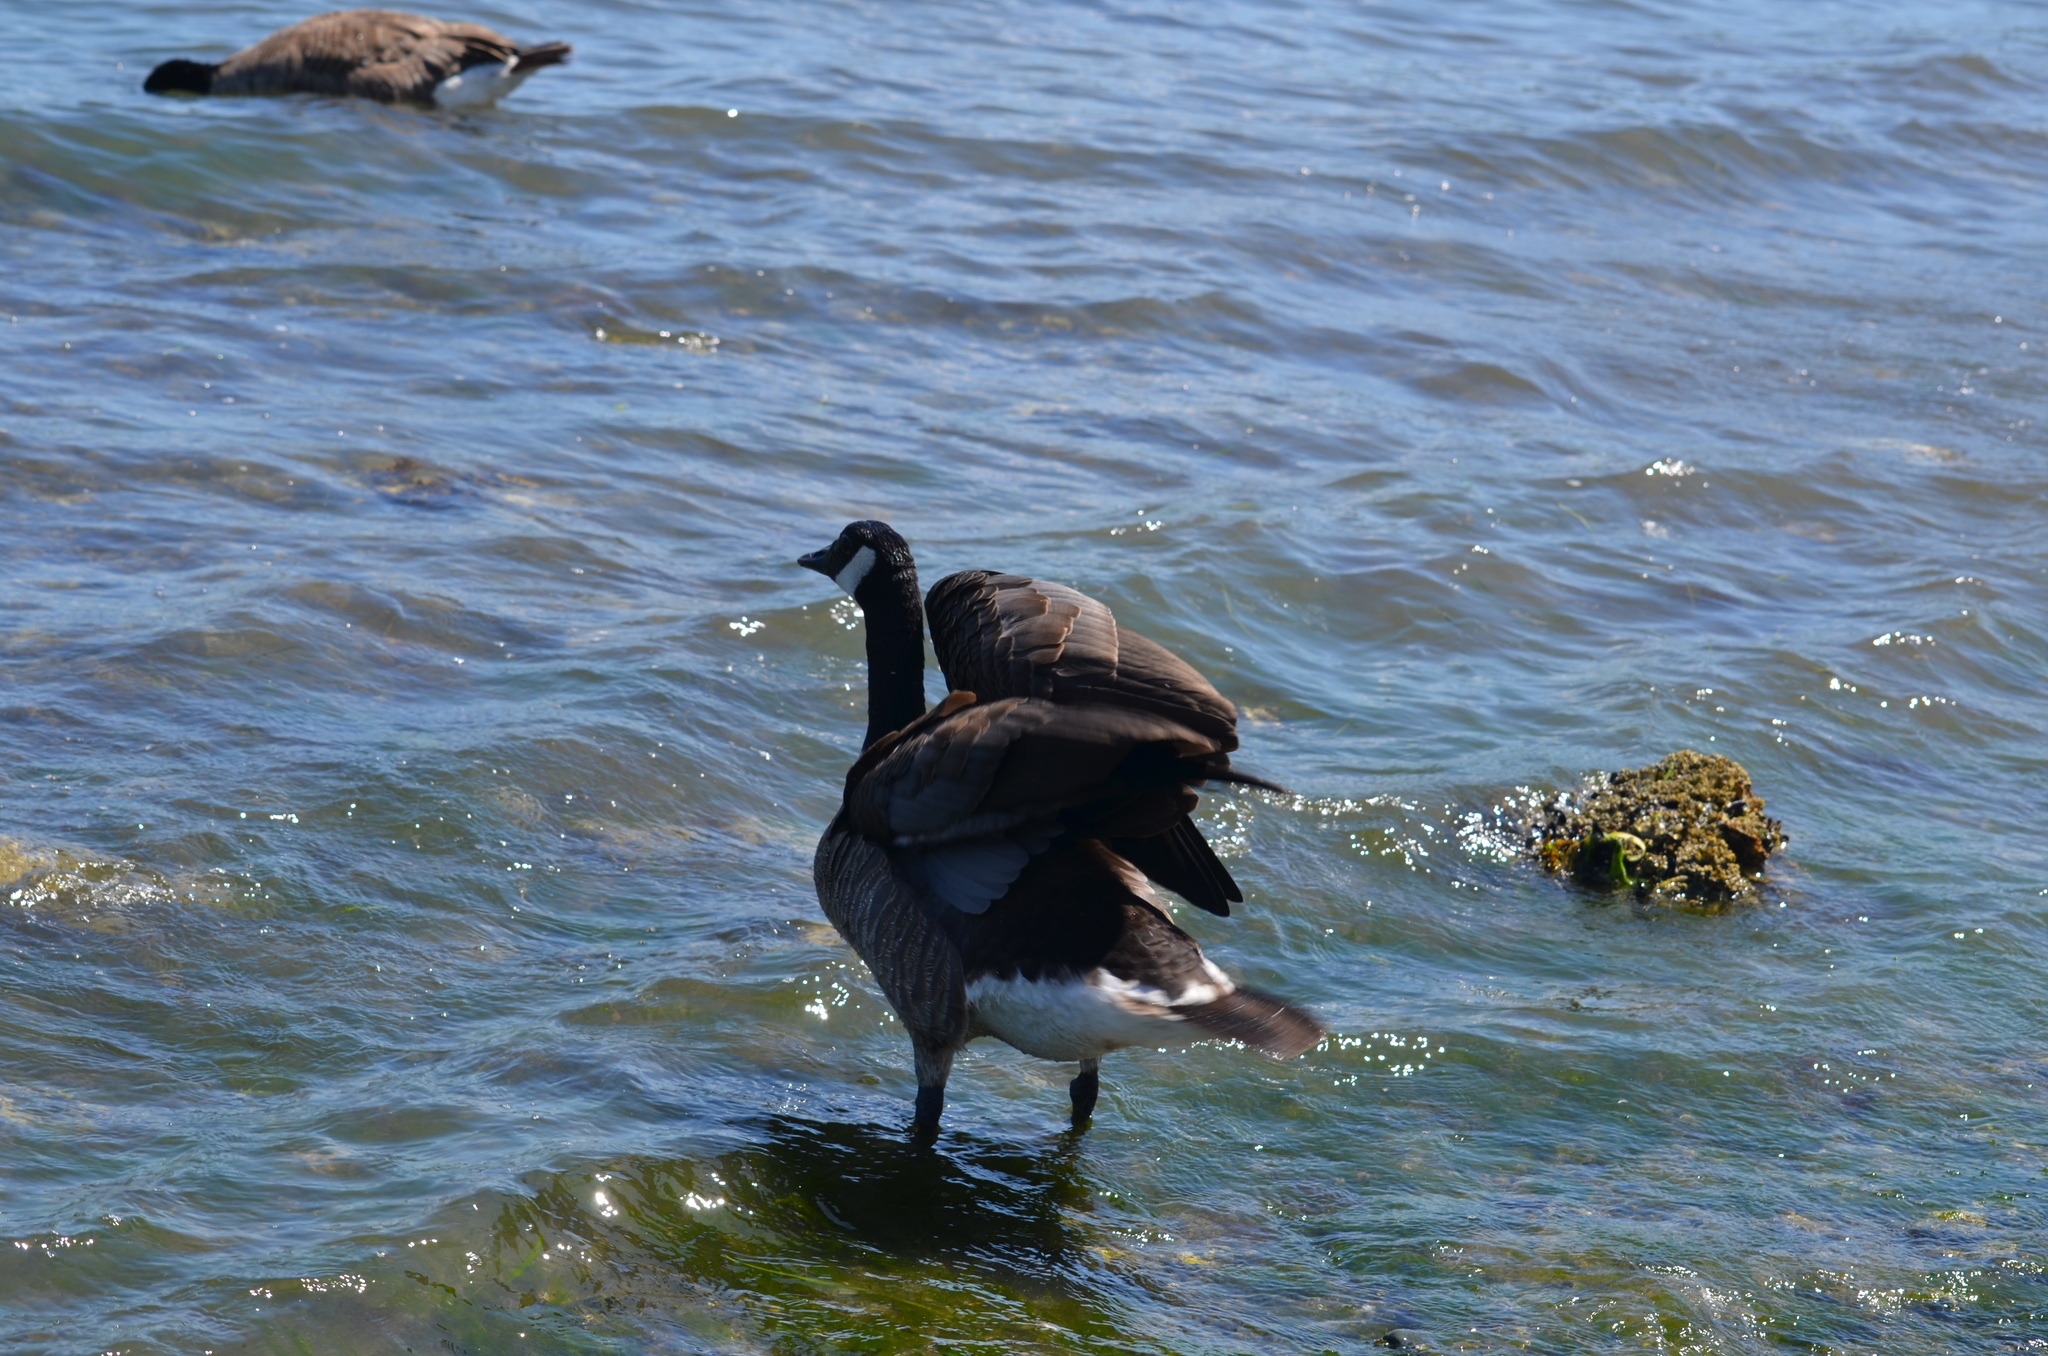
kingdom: Animalia
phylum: Chordata
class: Aves
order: Anseriformes
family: Anatidae
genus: Branta
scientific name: Branta canadensis
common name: Canada goose
